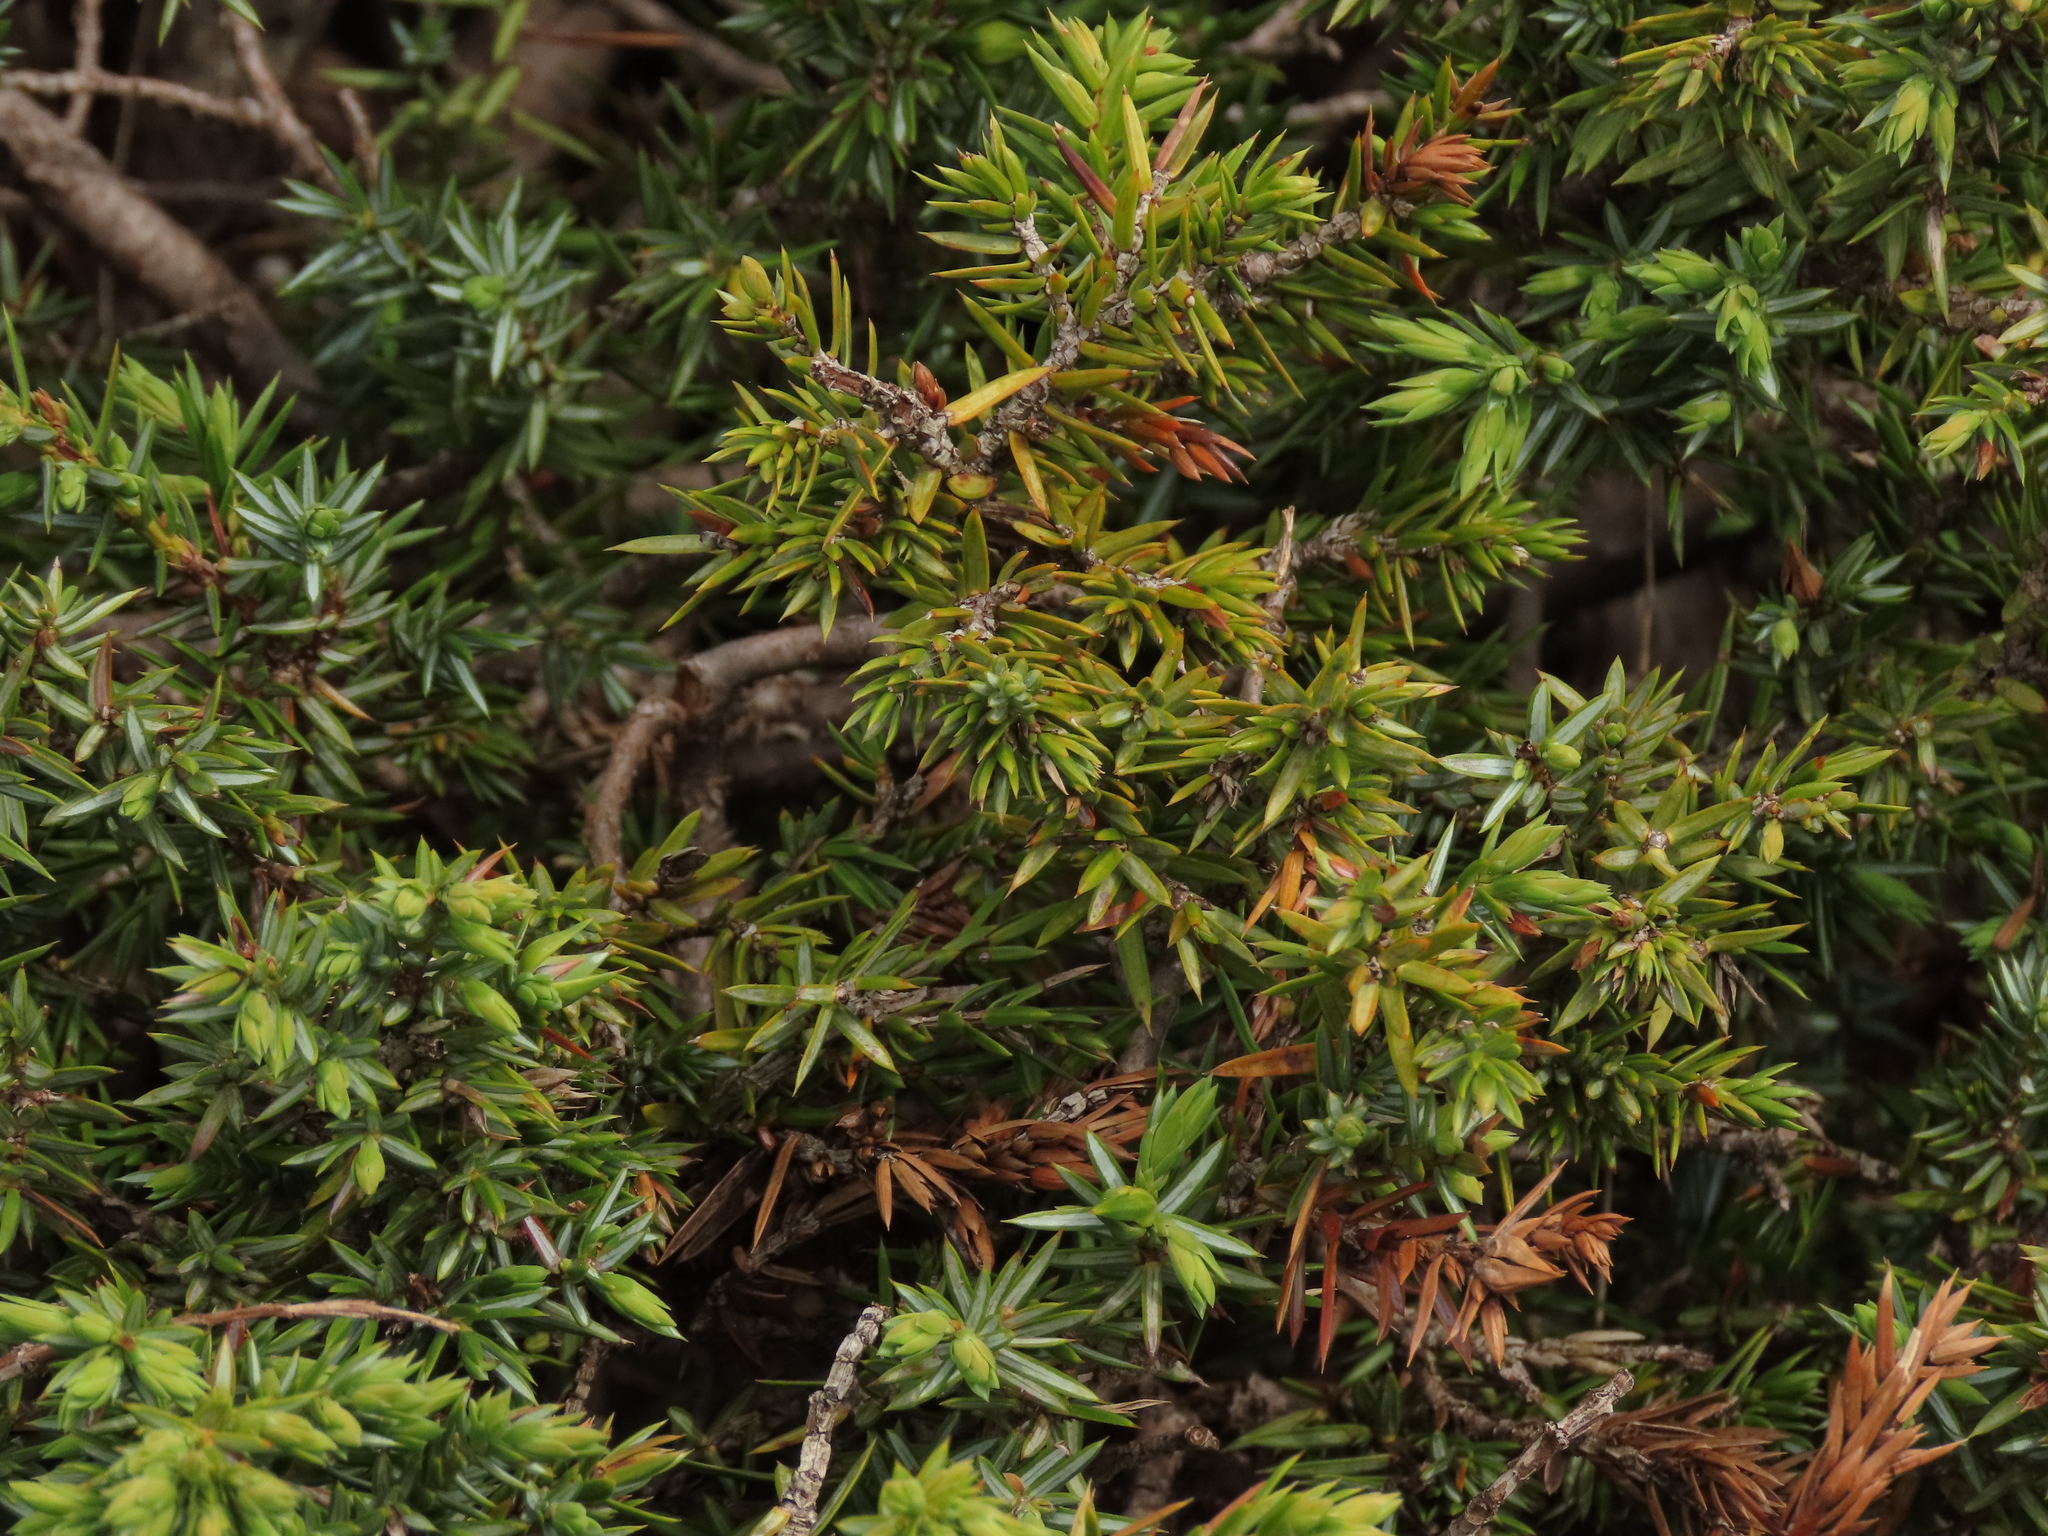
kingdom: Plantae
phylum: Tracheophyta
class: Pinopsida
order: Pinales
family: Cupressaceae
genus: Juniperus
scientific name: Juniperus communis
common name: Common juniper
